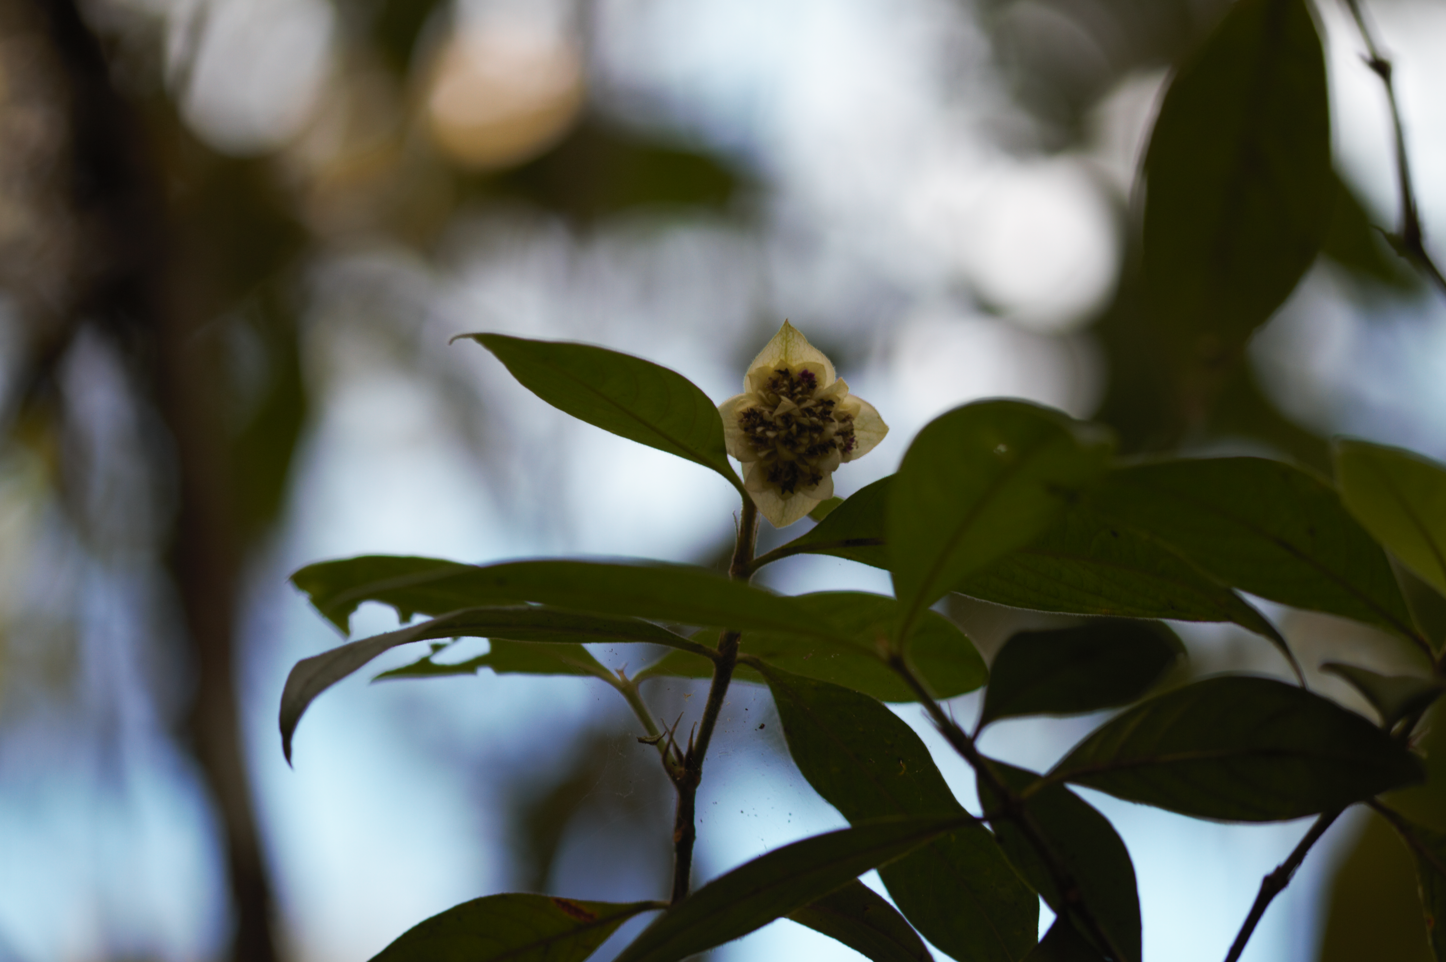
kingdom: Plantae
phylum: Tracheophyta
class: Magnoliopsida
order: Gentianales
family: Rubiaceae
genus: Palicourea
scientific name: Palicourea bracteocardia
